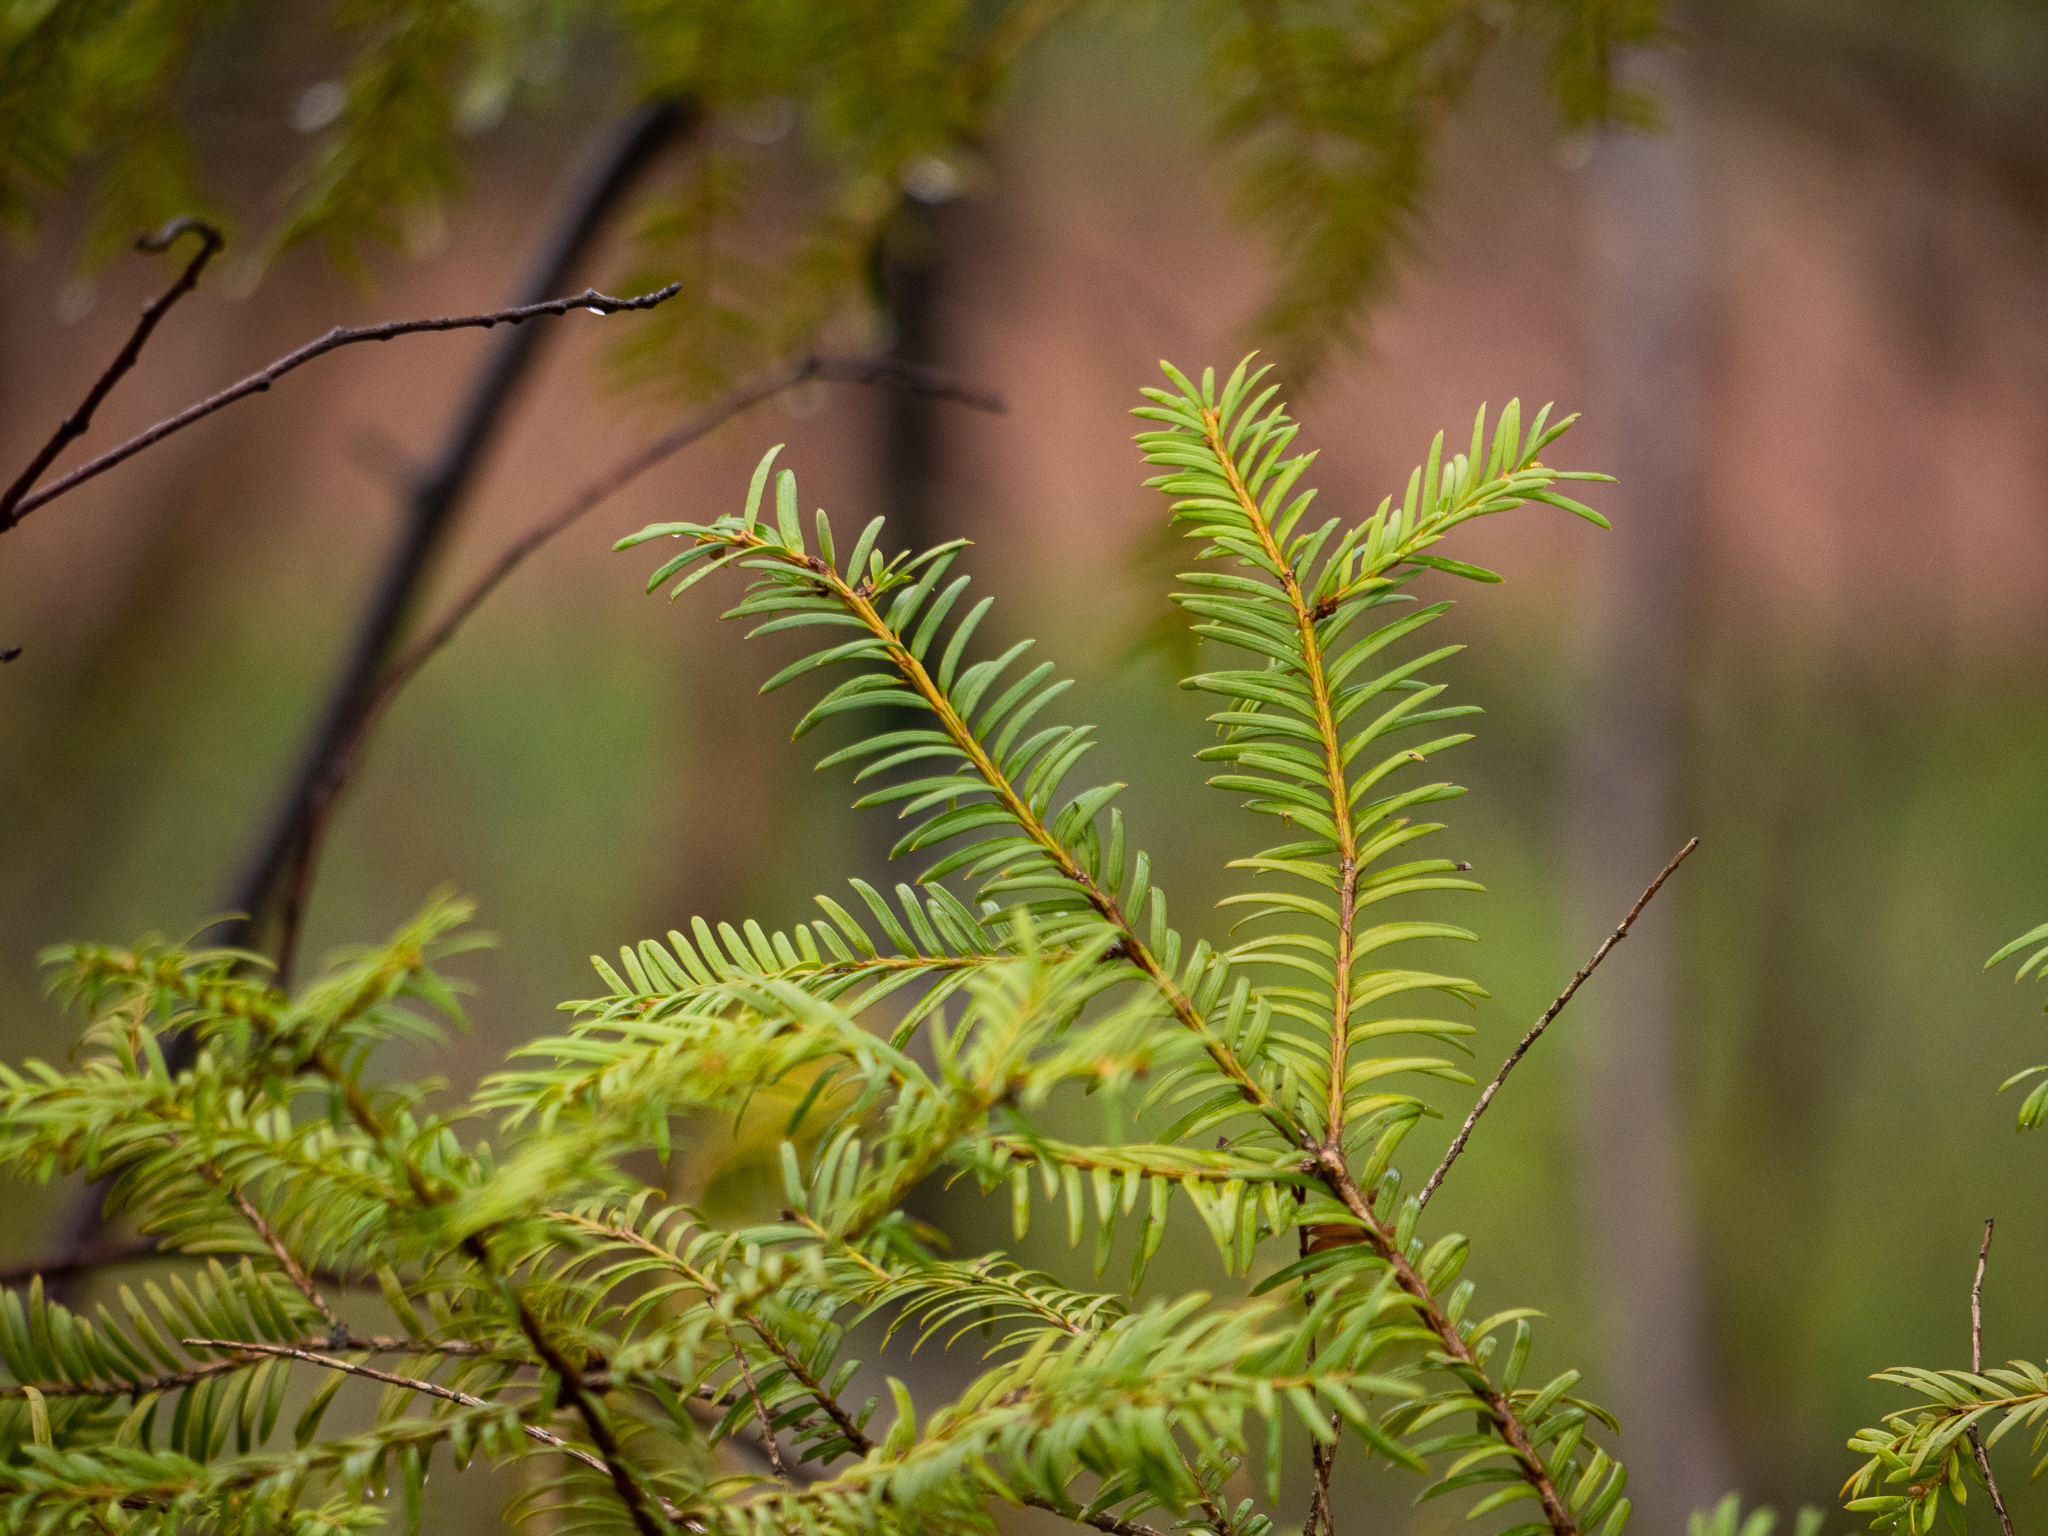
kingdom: Plantae
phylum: Tracheophyta
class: Pinopsida
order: Pinales
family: Taxaceae
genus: Taxus
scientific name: Taxus baccata
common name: Yew
